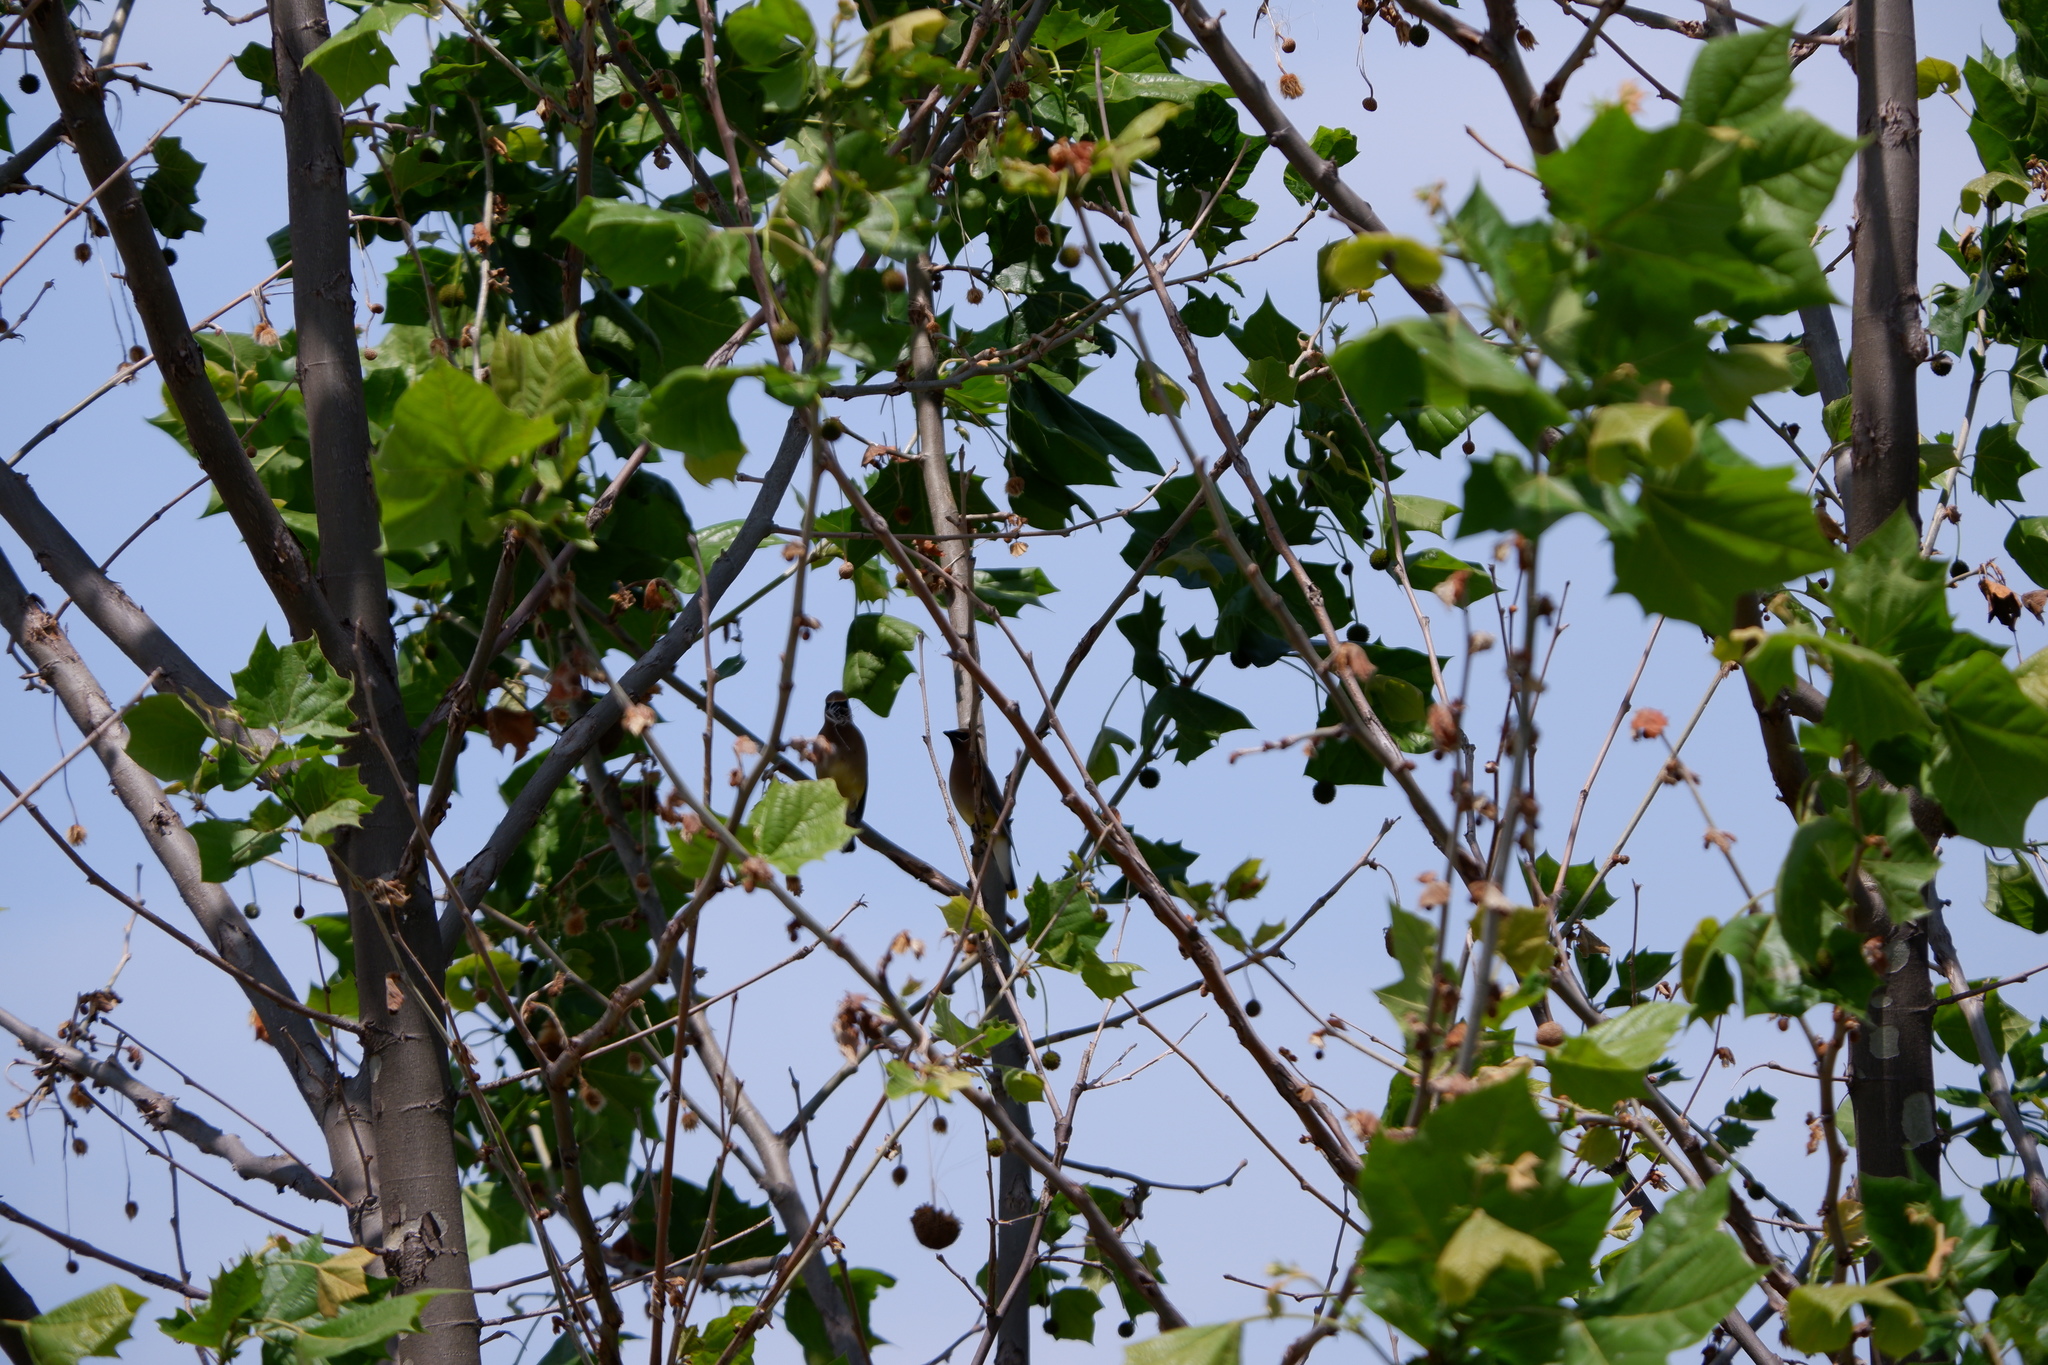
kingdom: Animalia
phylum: Chordata
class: Aves
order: Passeriformes
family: Bombycillidae
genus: Bombycilla
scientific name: Bombycilla cedrorum
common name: Cedar waxwing
